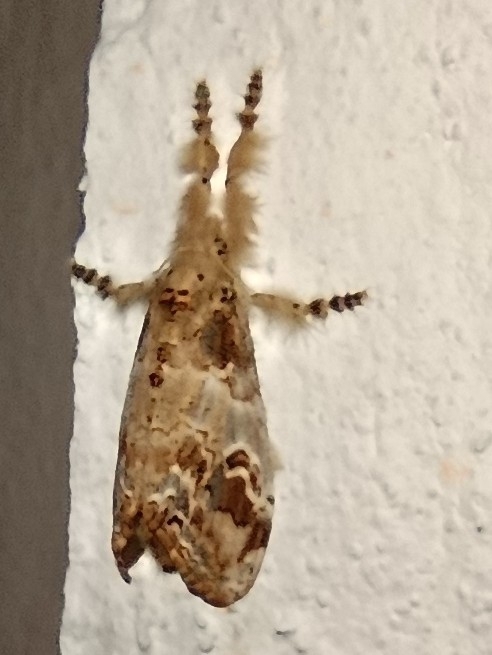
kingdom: Animalia
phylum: Arthropoda
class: Insecta
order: Lepidoptera
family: Erebidae
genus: Olene
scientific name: Olene mendosa
